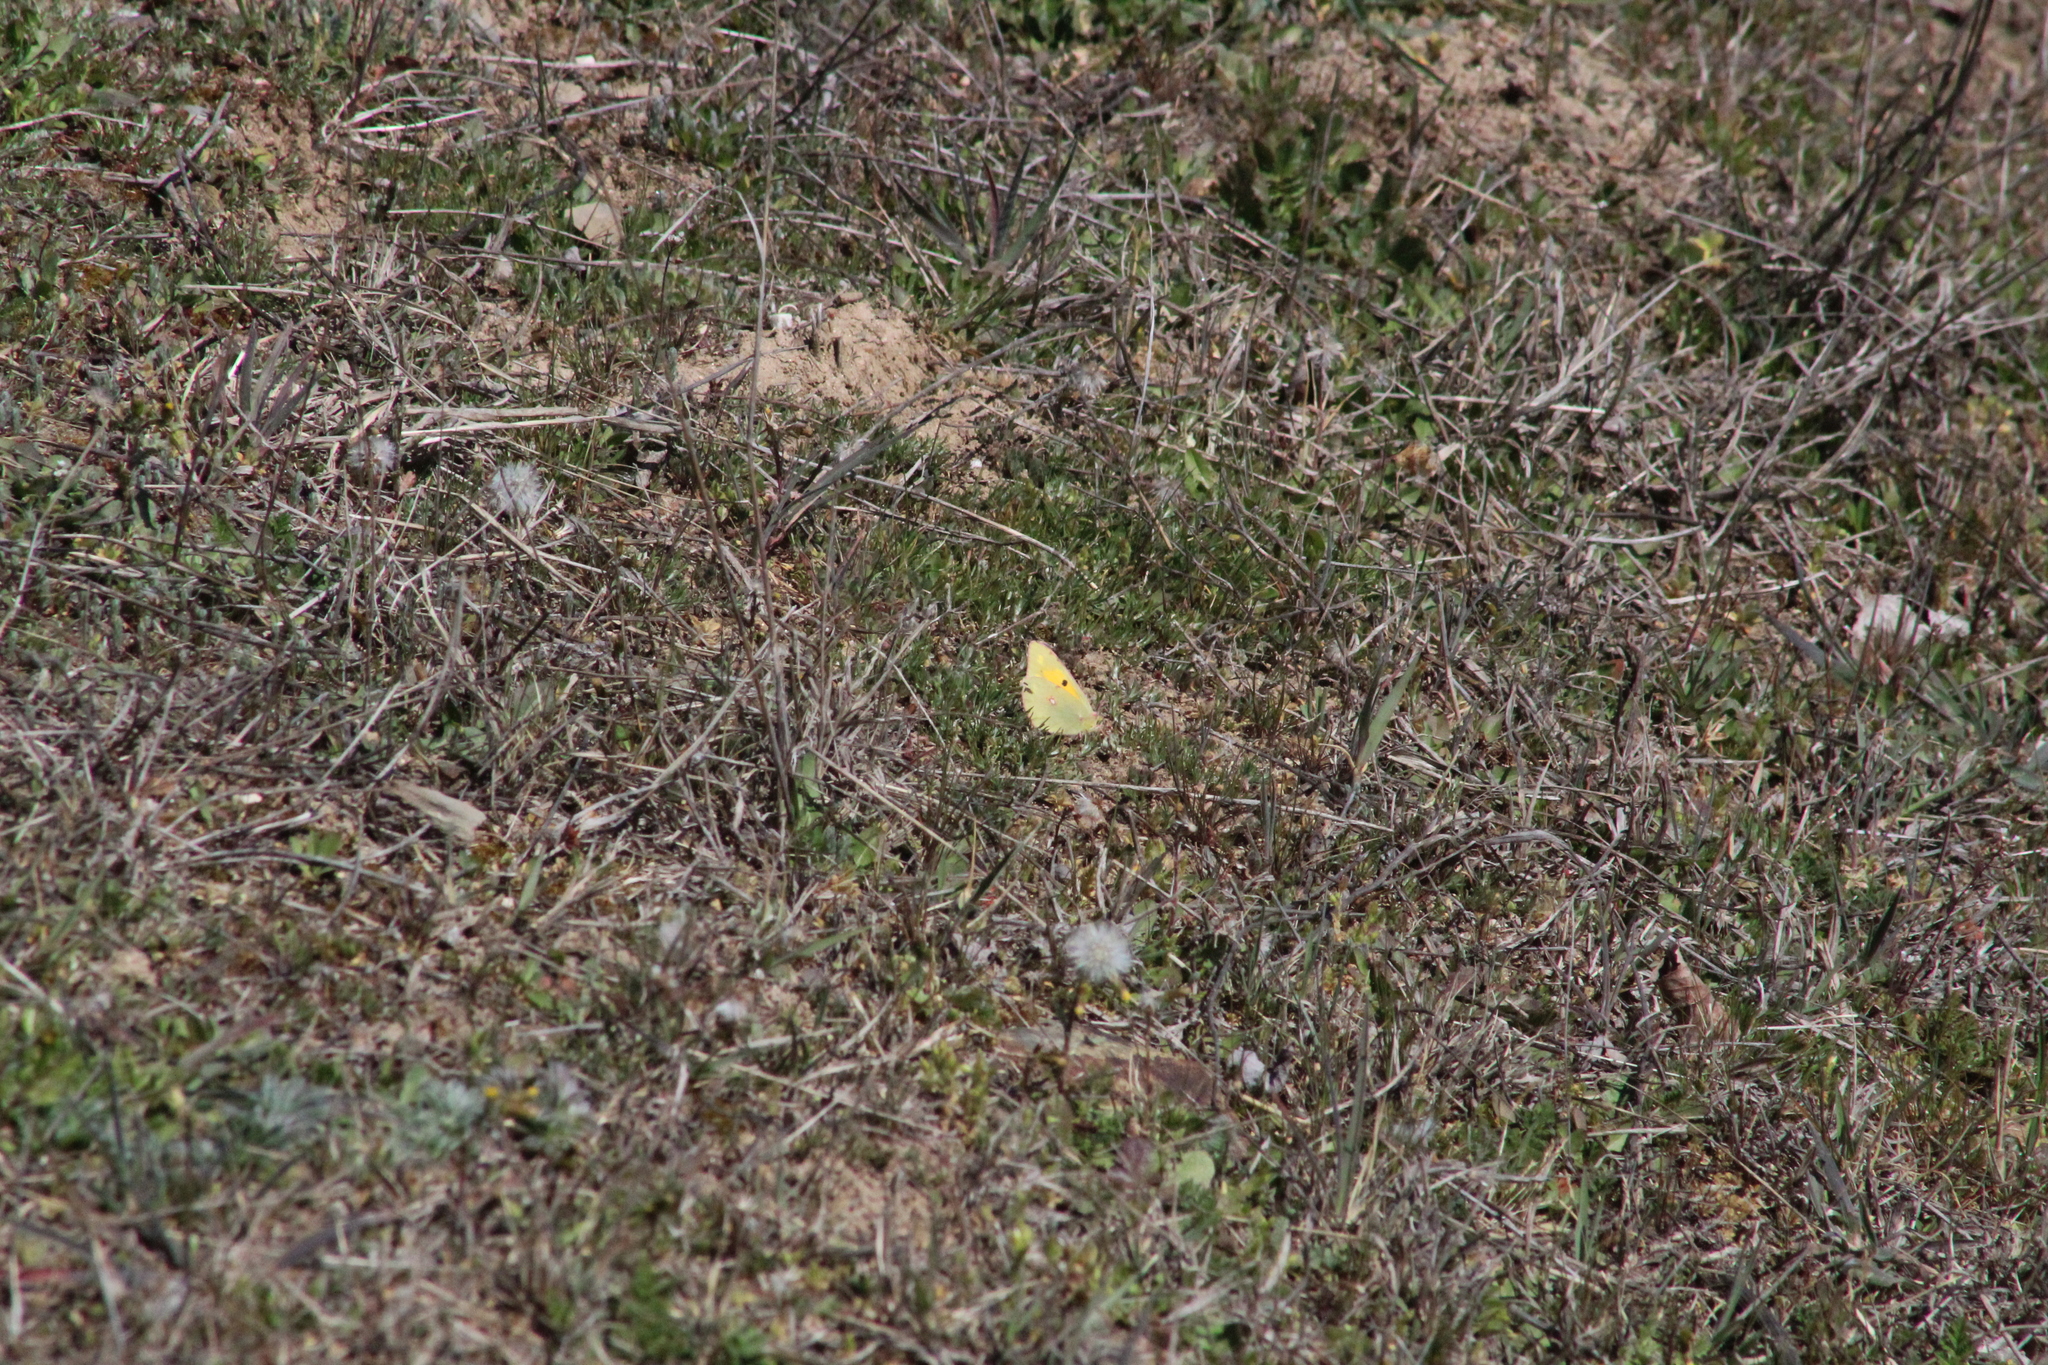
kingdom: Animalia
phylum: Arthropoda
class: Insecta
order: Lepidoptera
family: Pieridae
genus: Colias
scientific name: Colias croceus
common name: Clouded yellow
